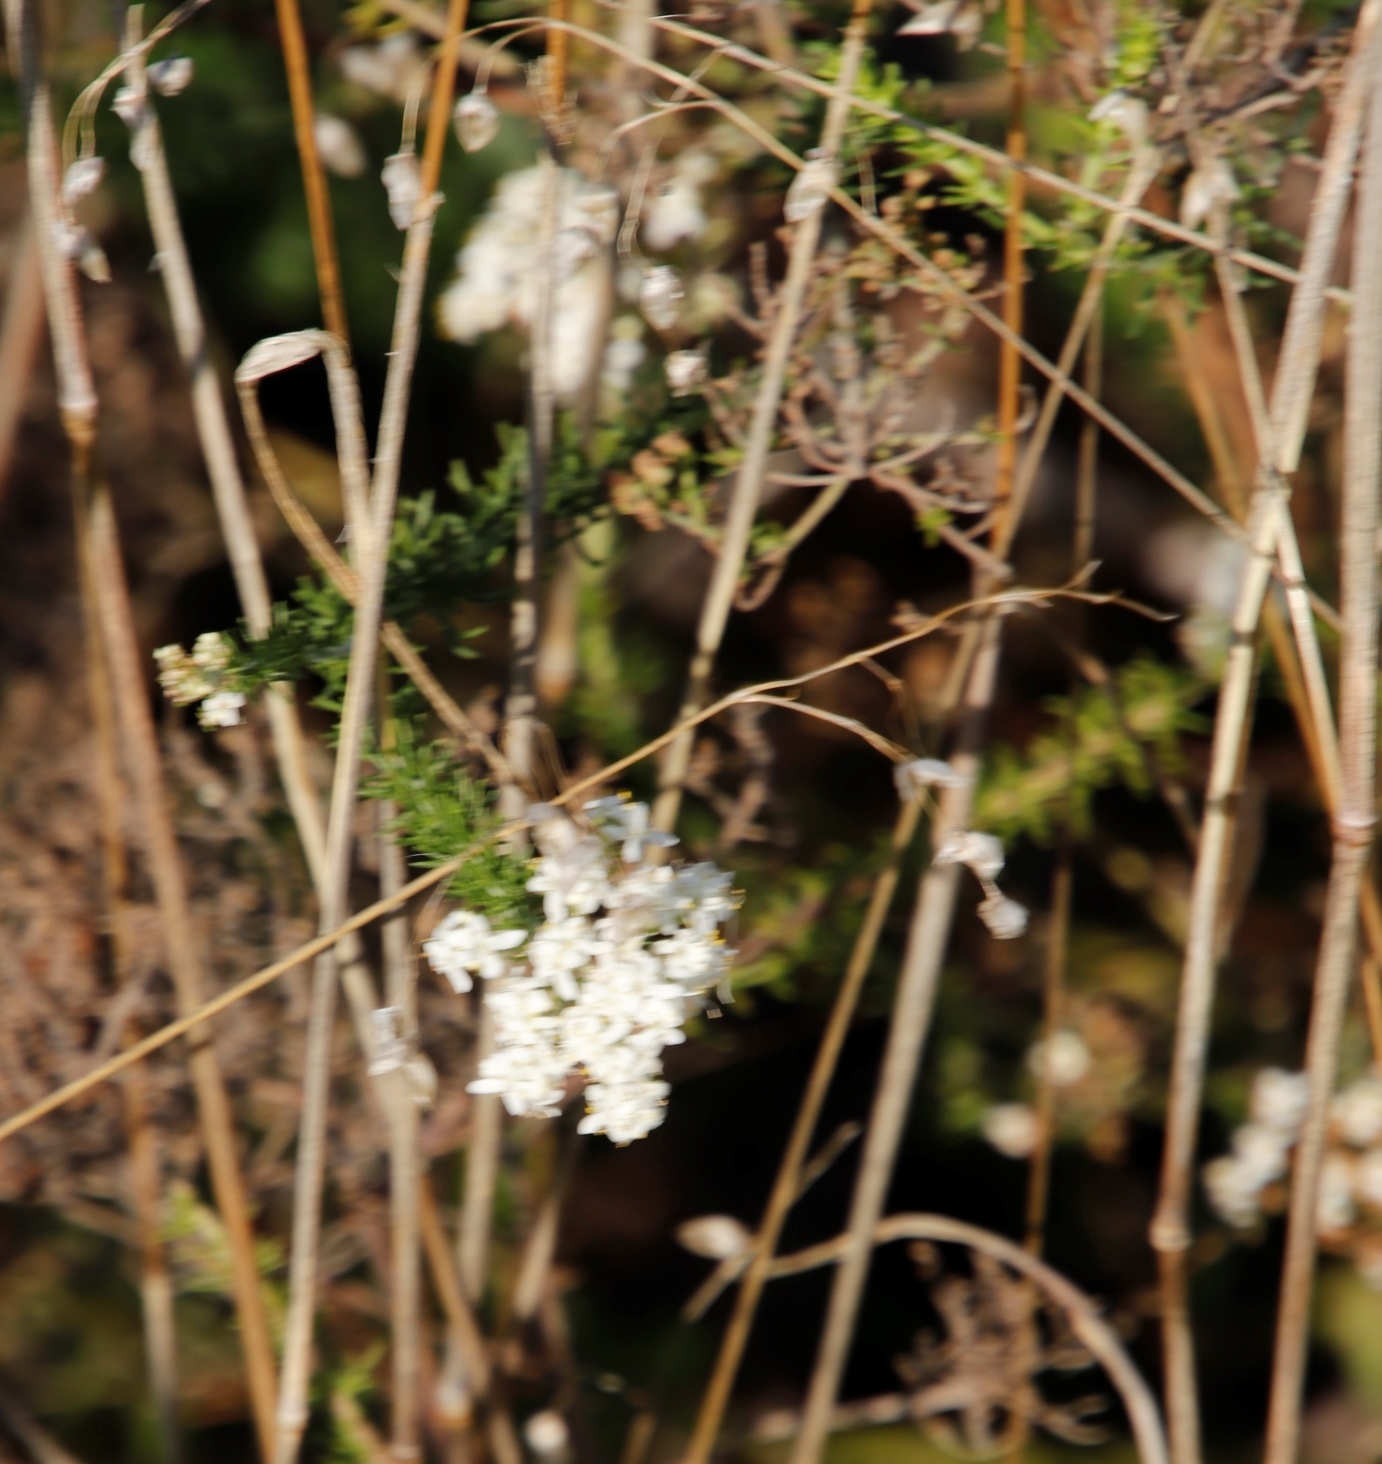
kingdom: Plantae
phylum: Tracheophyta
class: Magnoliopsida
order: Lamiales
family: Scrophulariaceae
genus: Selago
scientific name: Selago corymbosa
